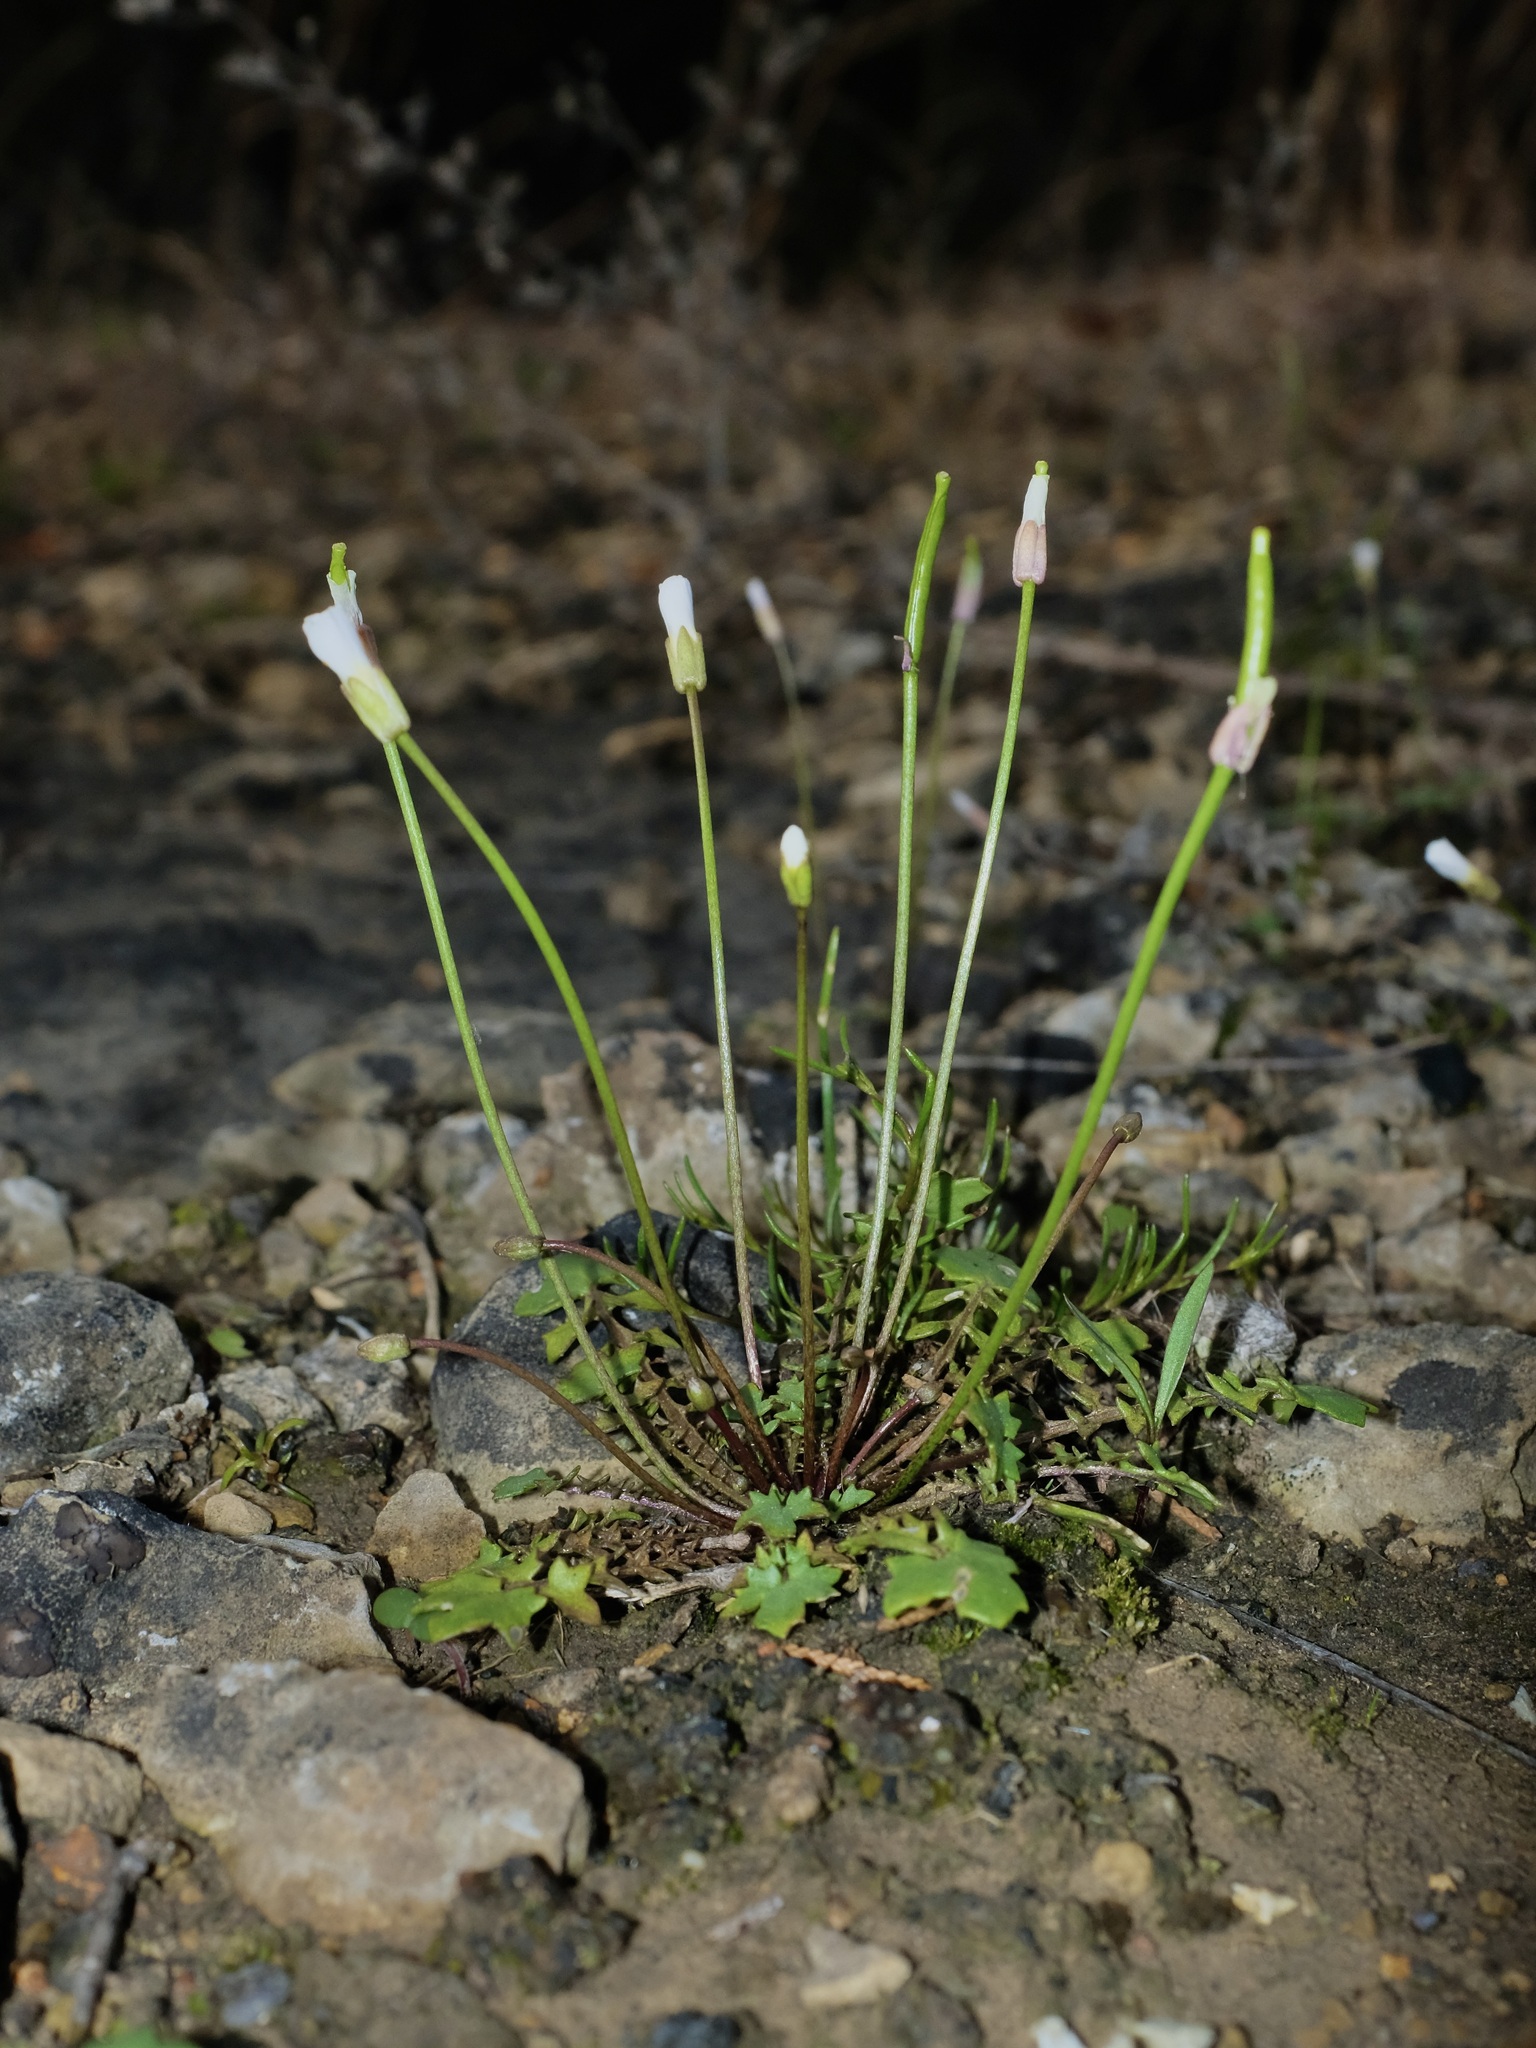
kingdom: Plantae
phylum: Tracheophyta
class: Magnoliopsida
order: Brassicales
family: Brassicaceae
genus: Leavenworthia
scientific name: Leavenworthia uniflora
